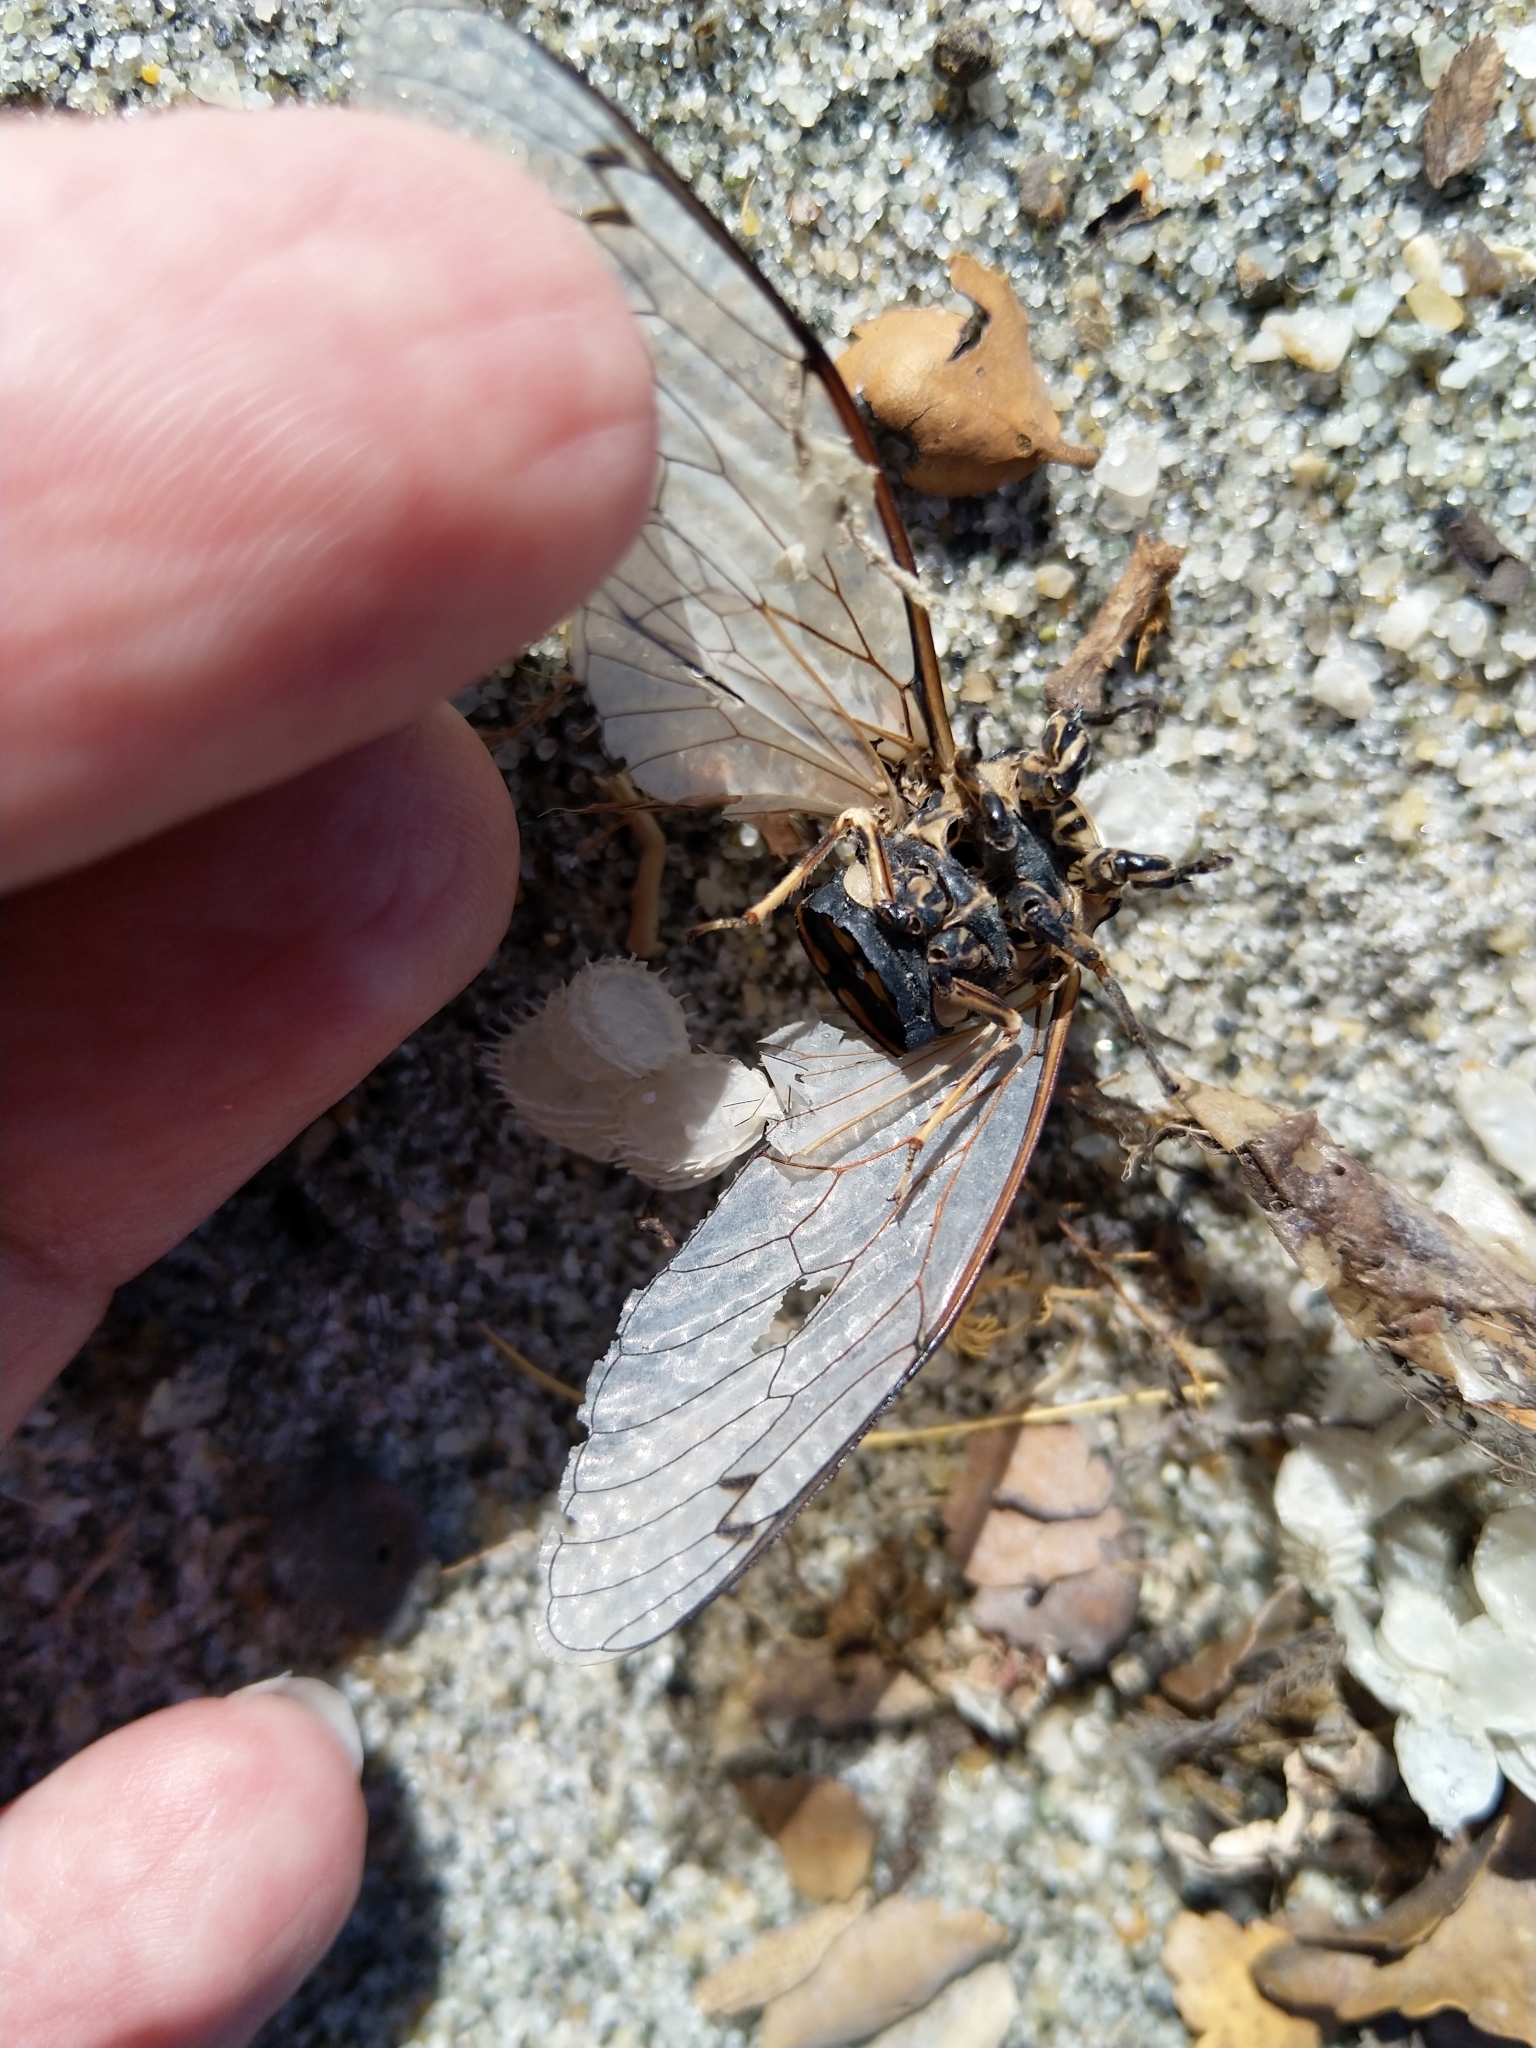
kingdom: Animalia
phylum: Arthropoda
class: Insecta
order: Hemiptera
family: Cicadidae
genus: Amphipsalta
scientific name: Amphipsalta zelandica
